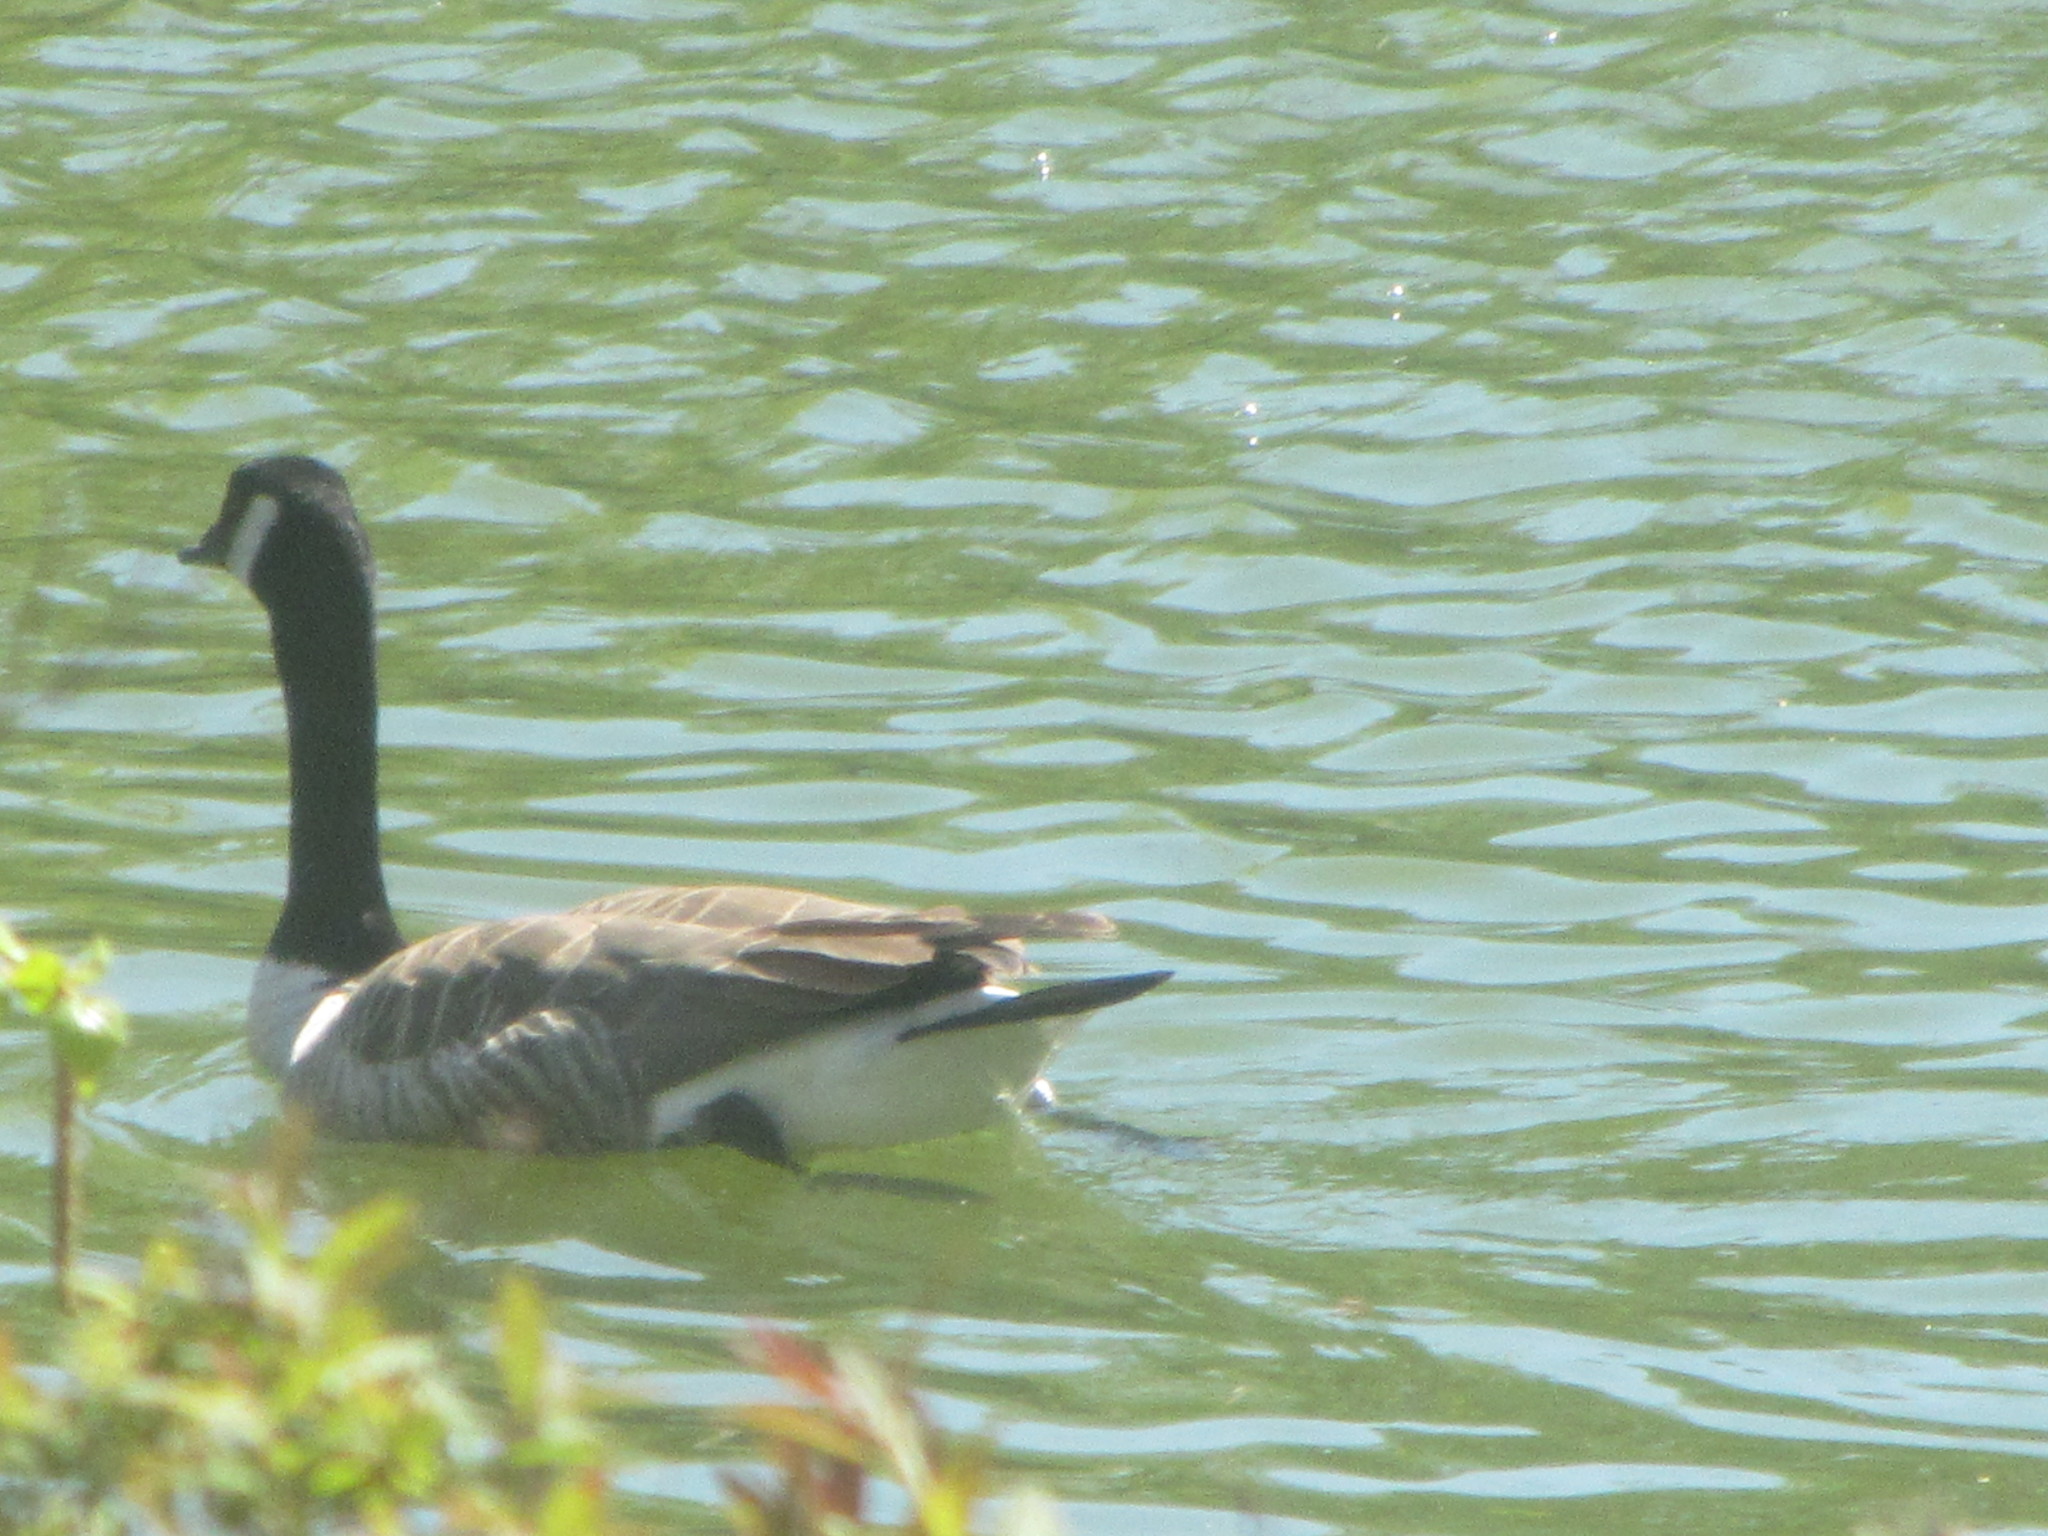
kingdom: Animalia
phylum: Chordata
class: Aves
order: Anseriformes
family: Anatidae
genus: Branta
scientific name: Branta canadensis
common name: Canada goose
